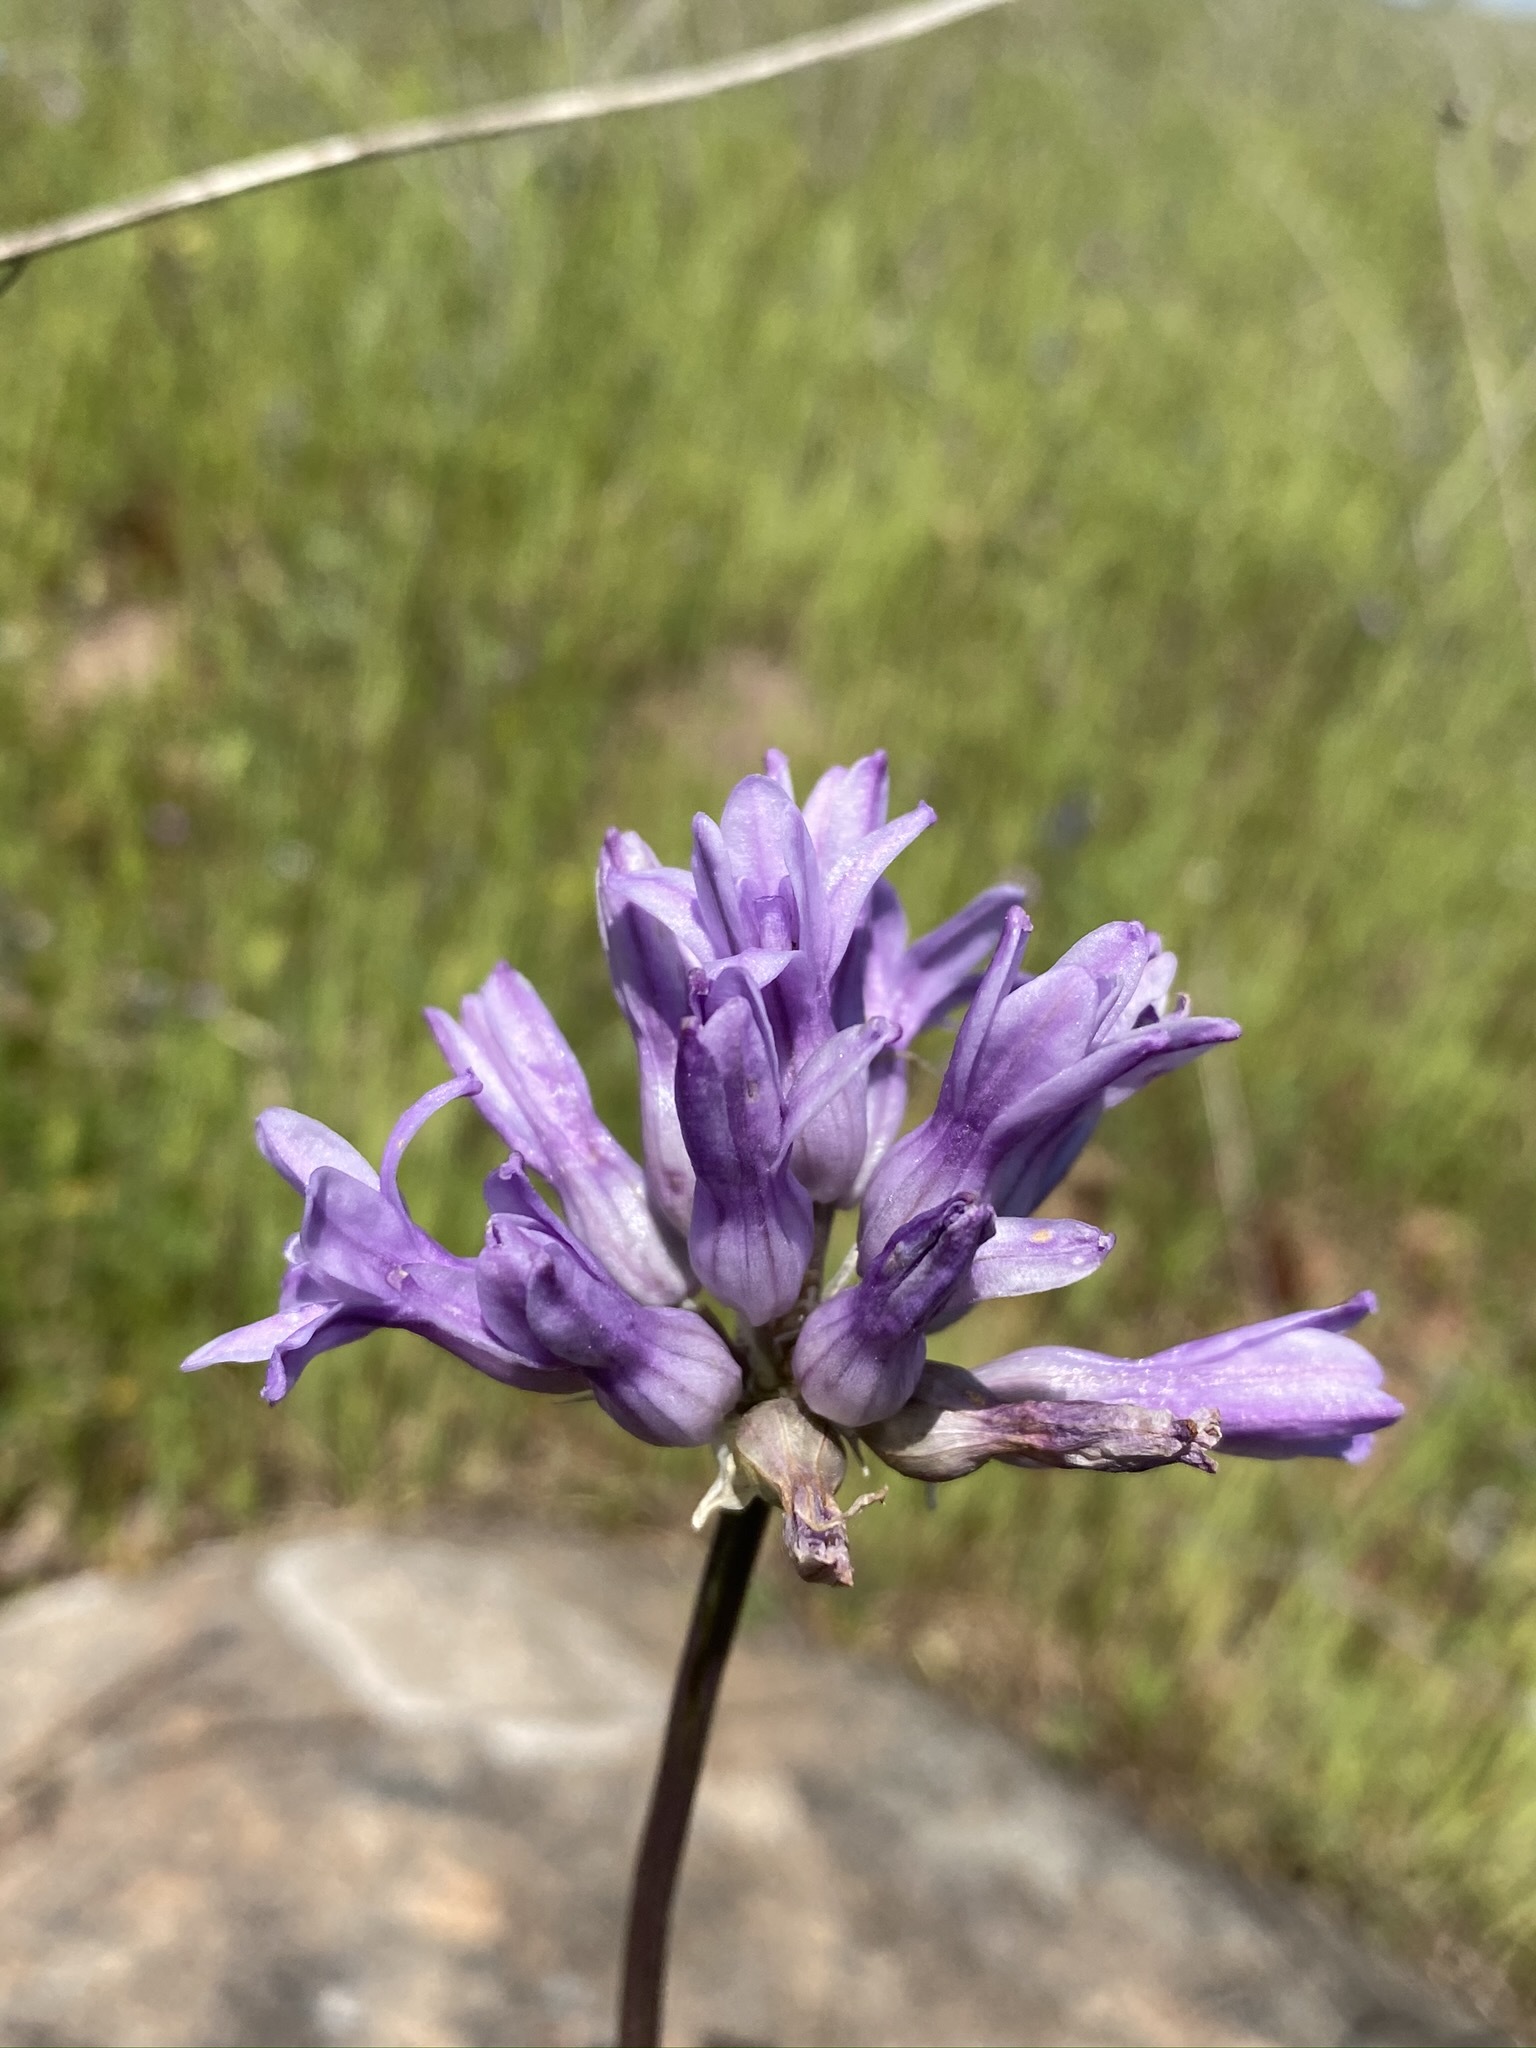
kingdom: Plantae
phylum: Tracheophyta
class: Liliopsida
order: Asparagales
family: Asparagaceae
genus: Dichelostemma
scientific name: Dichelostemma multiflorum
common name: Round-tooth ookow
